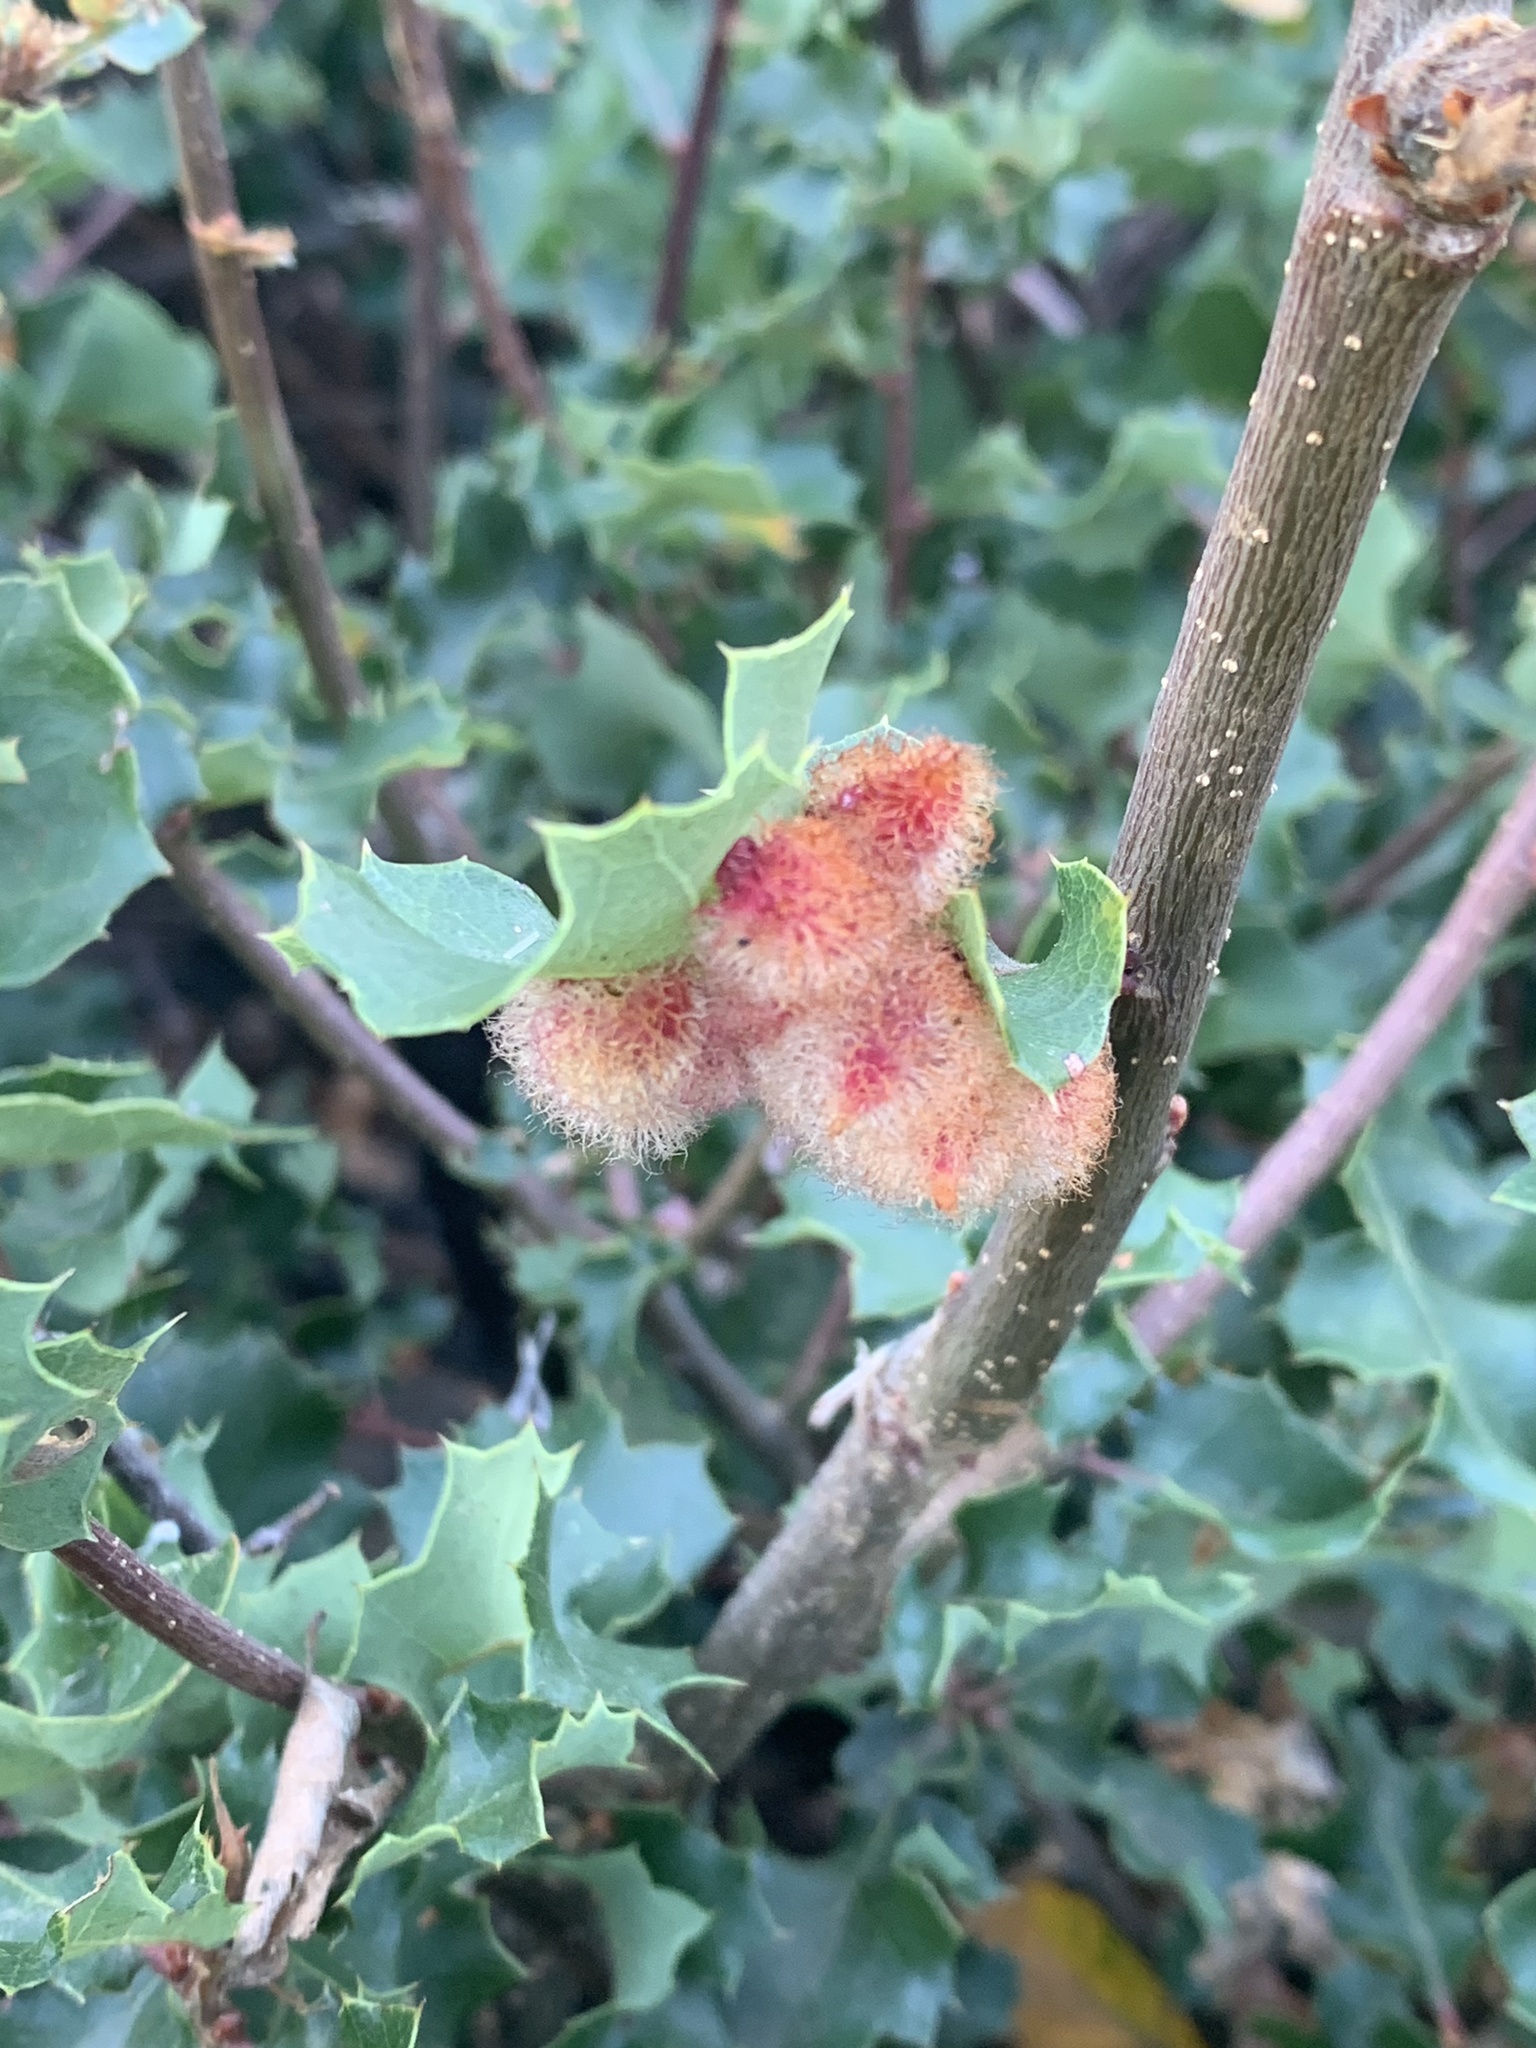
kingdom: Animalia
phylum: Arthropoda
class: Insecta
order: Hymenoptera
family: Cynipidae
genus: Andricus
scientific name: Andricus
